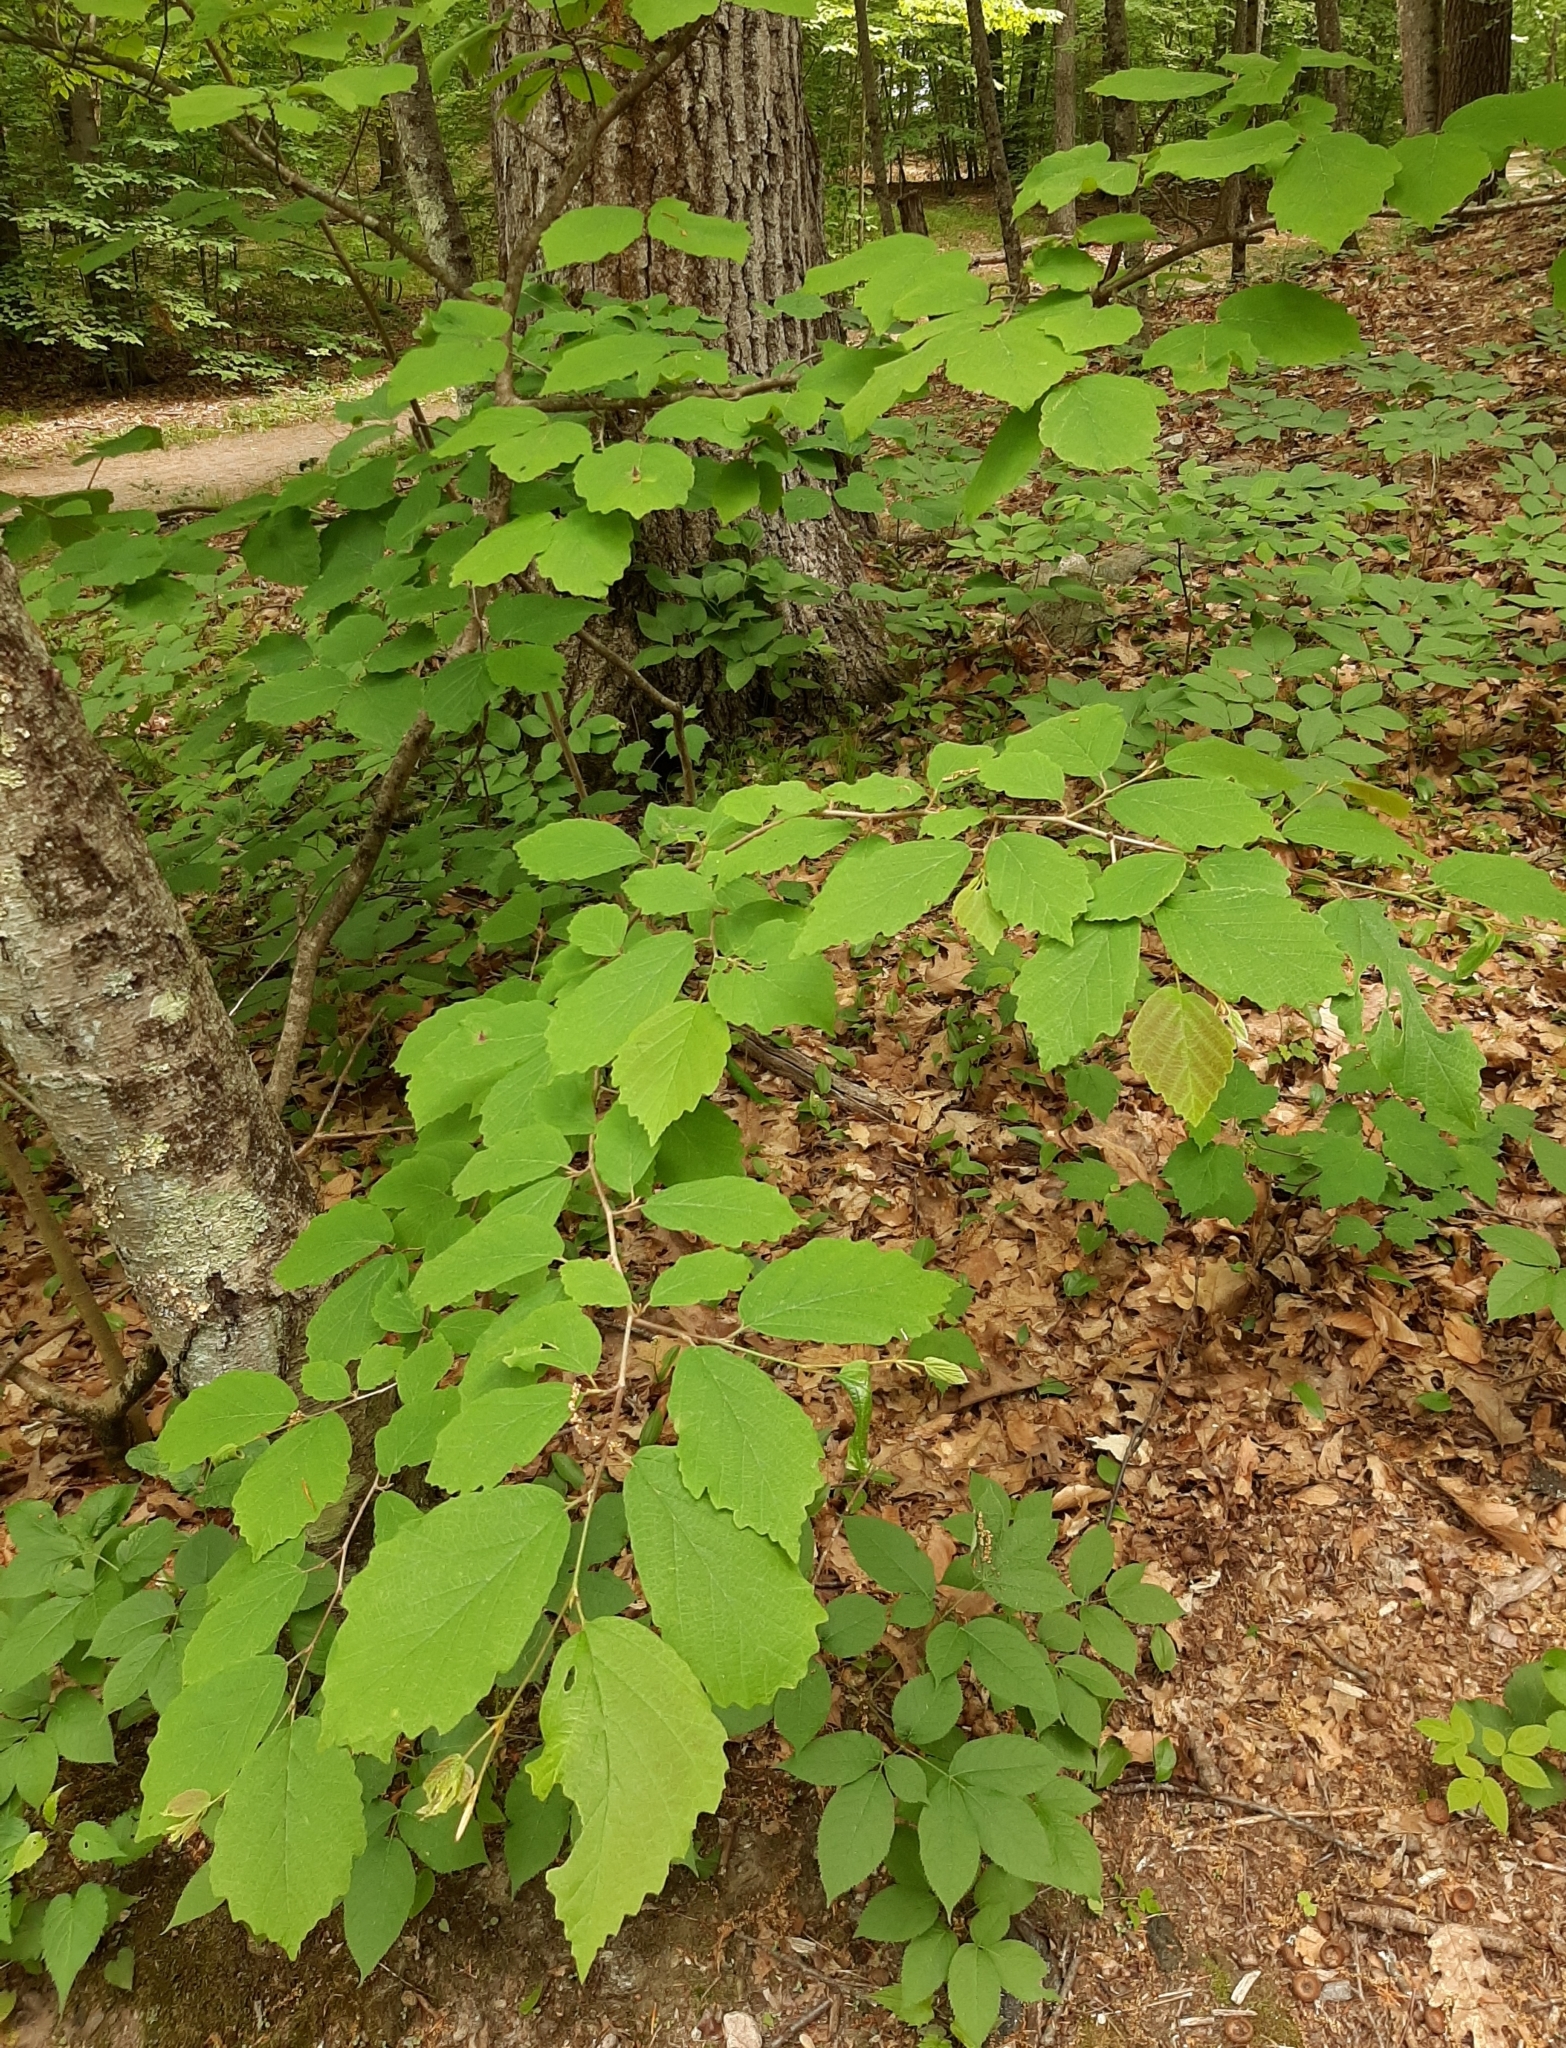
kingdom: Plantae
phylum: Tracheophyta
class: Magnoliopsida
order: Saxifragales
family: Hamamelidaceae
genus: Hamamelis
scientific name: Hamamelis virginiana
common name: Witch-hazel
